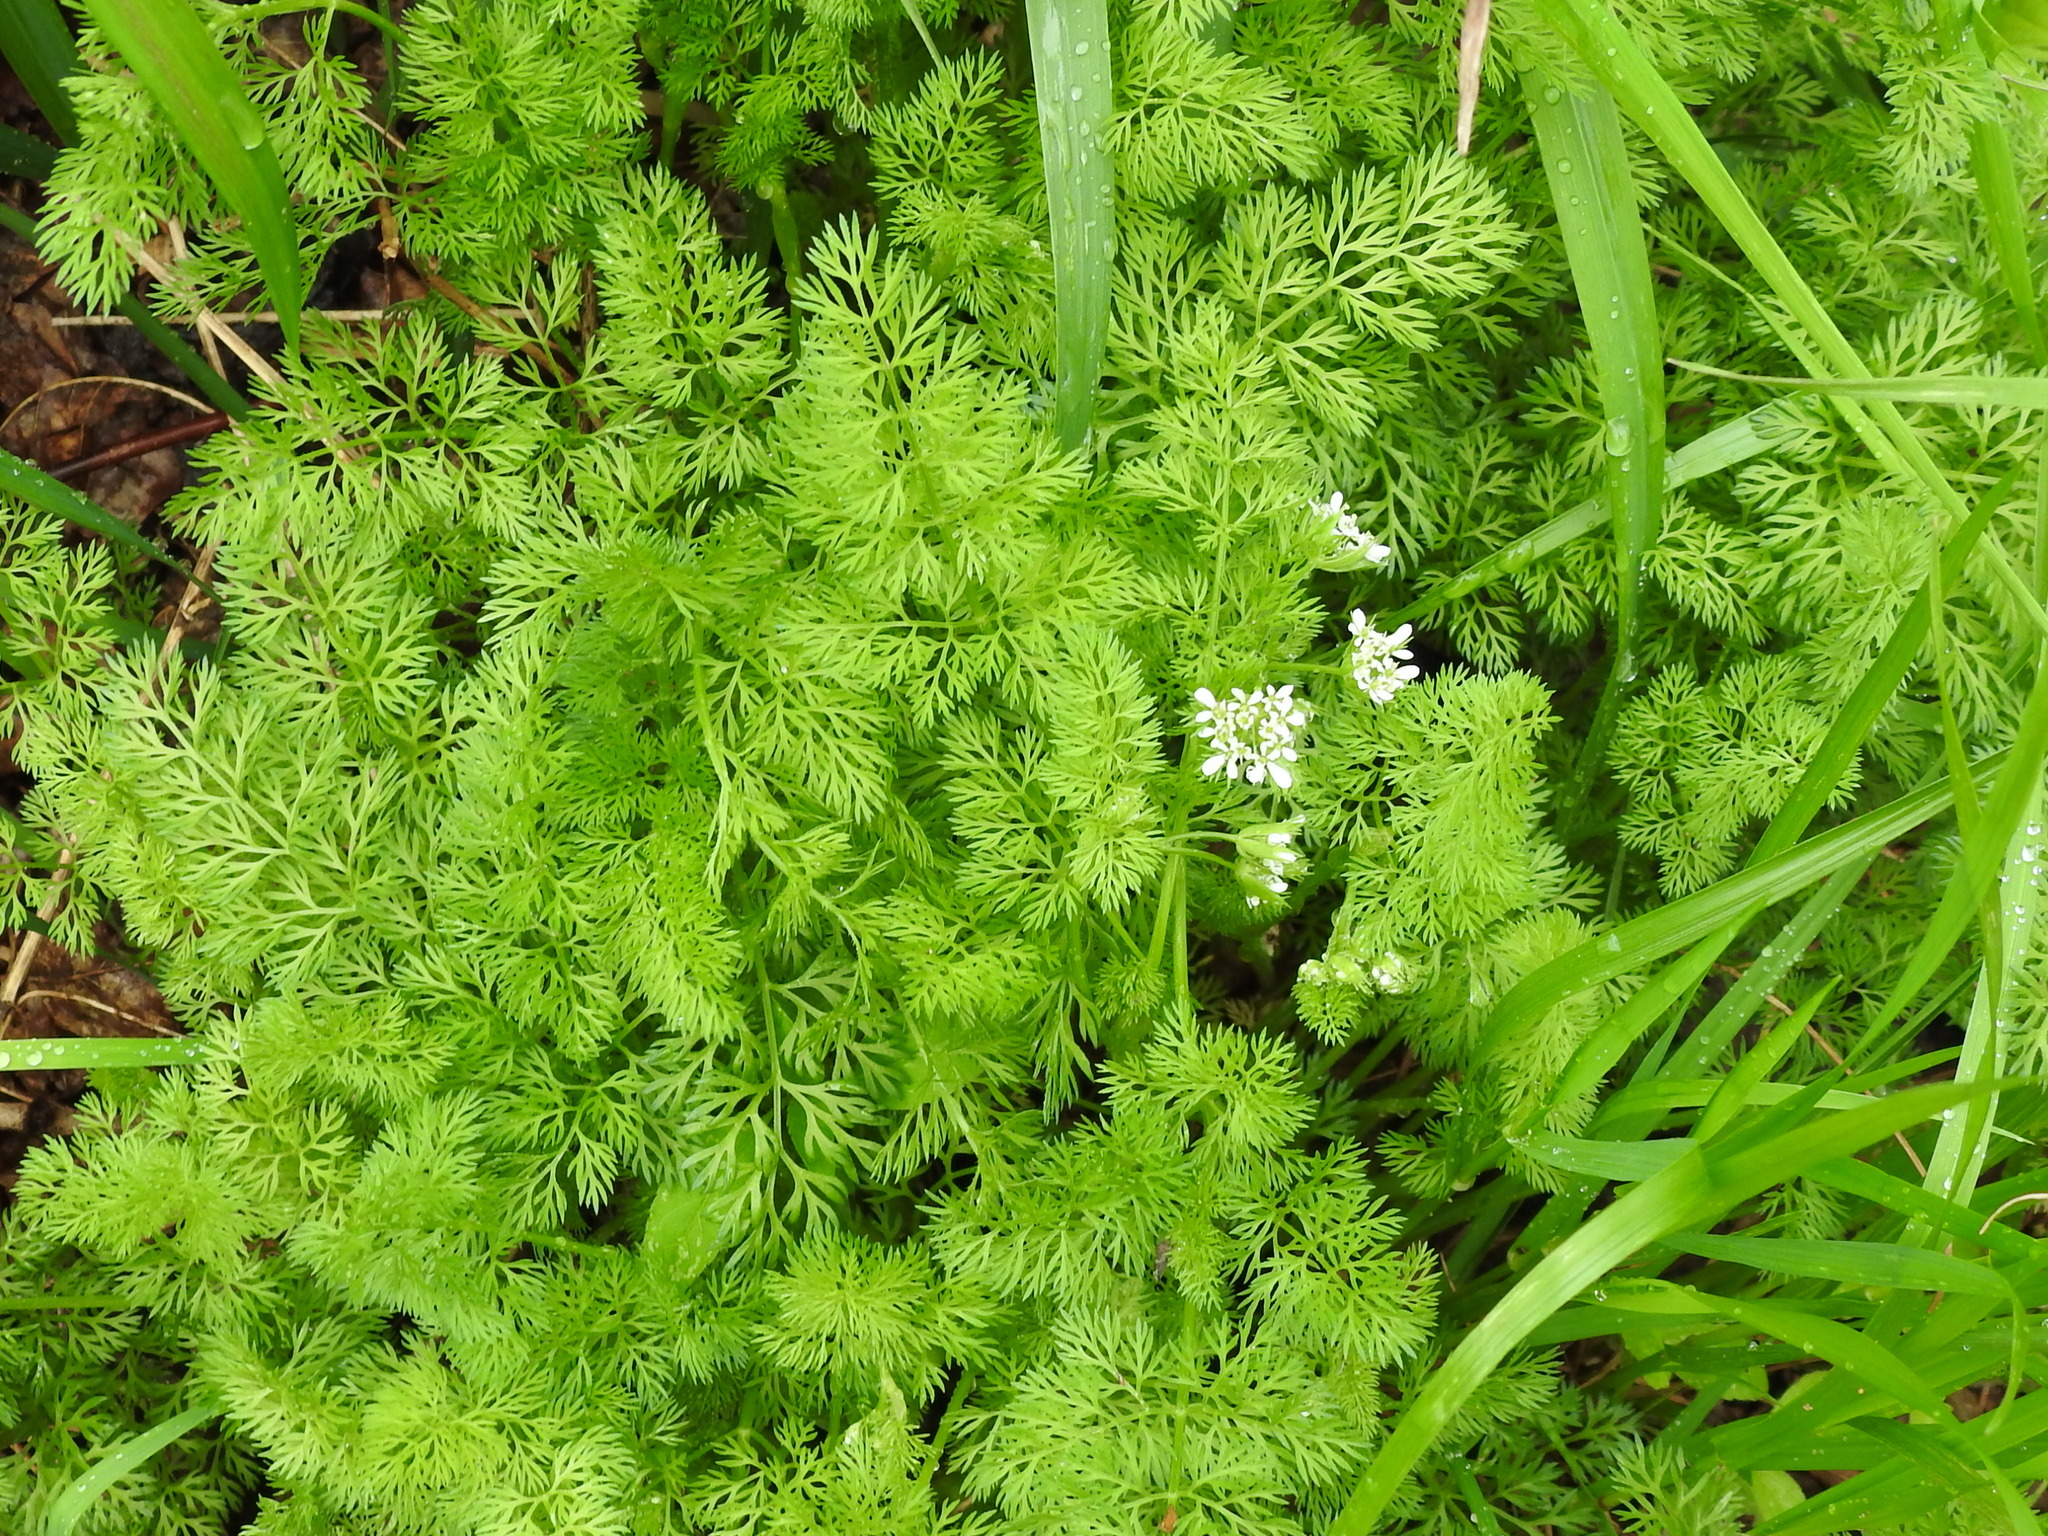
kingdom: Plantae
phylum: Tracheophyta
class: Magnoliopsida
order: Apiales
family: Apiaceae
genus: Scandix
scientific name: Scandix pecten-veneris
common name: Shepherd's-needle
